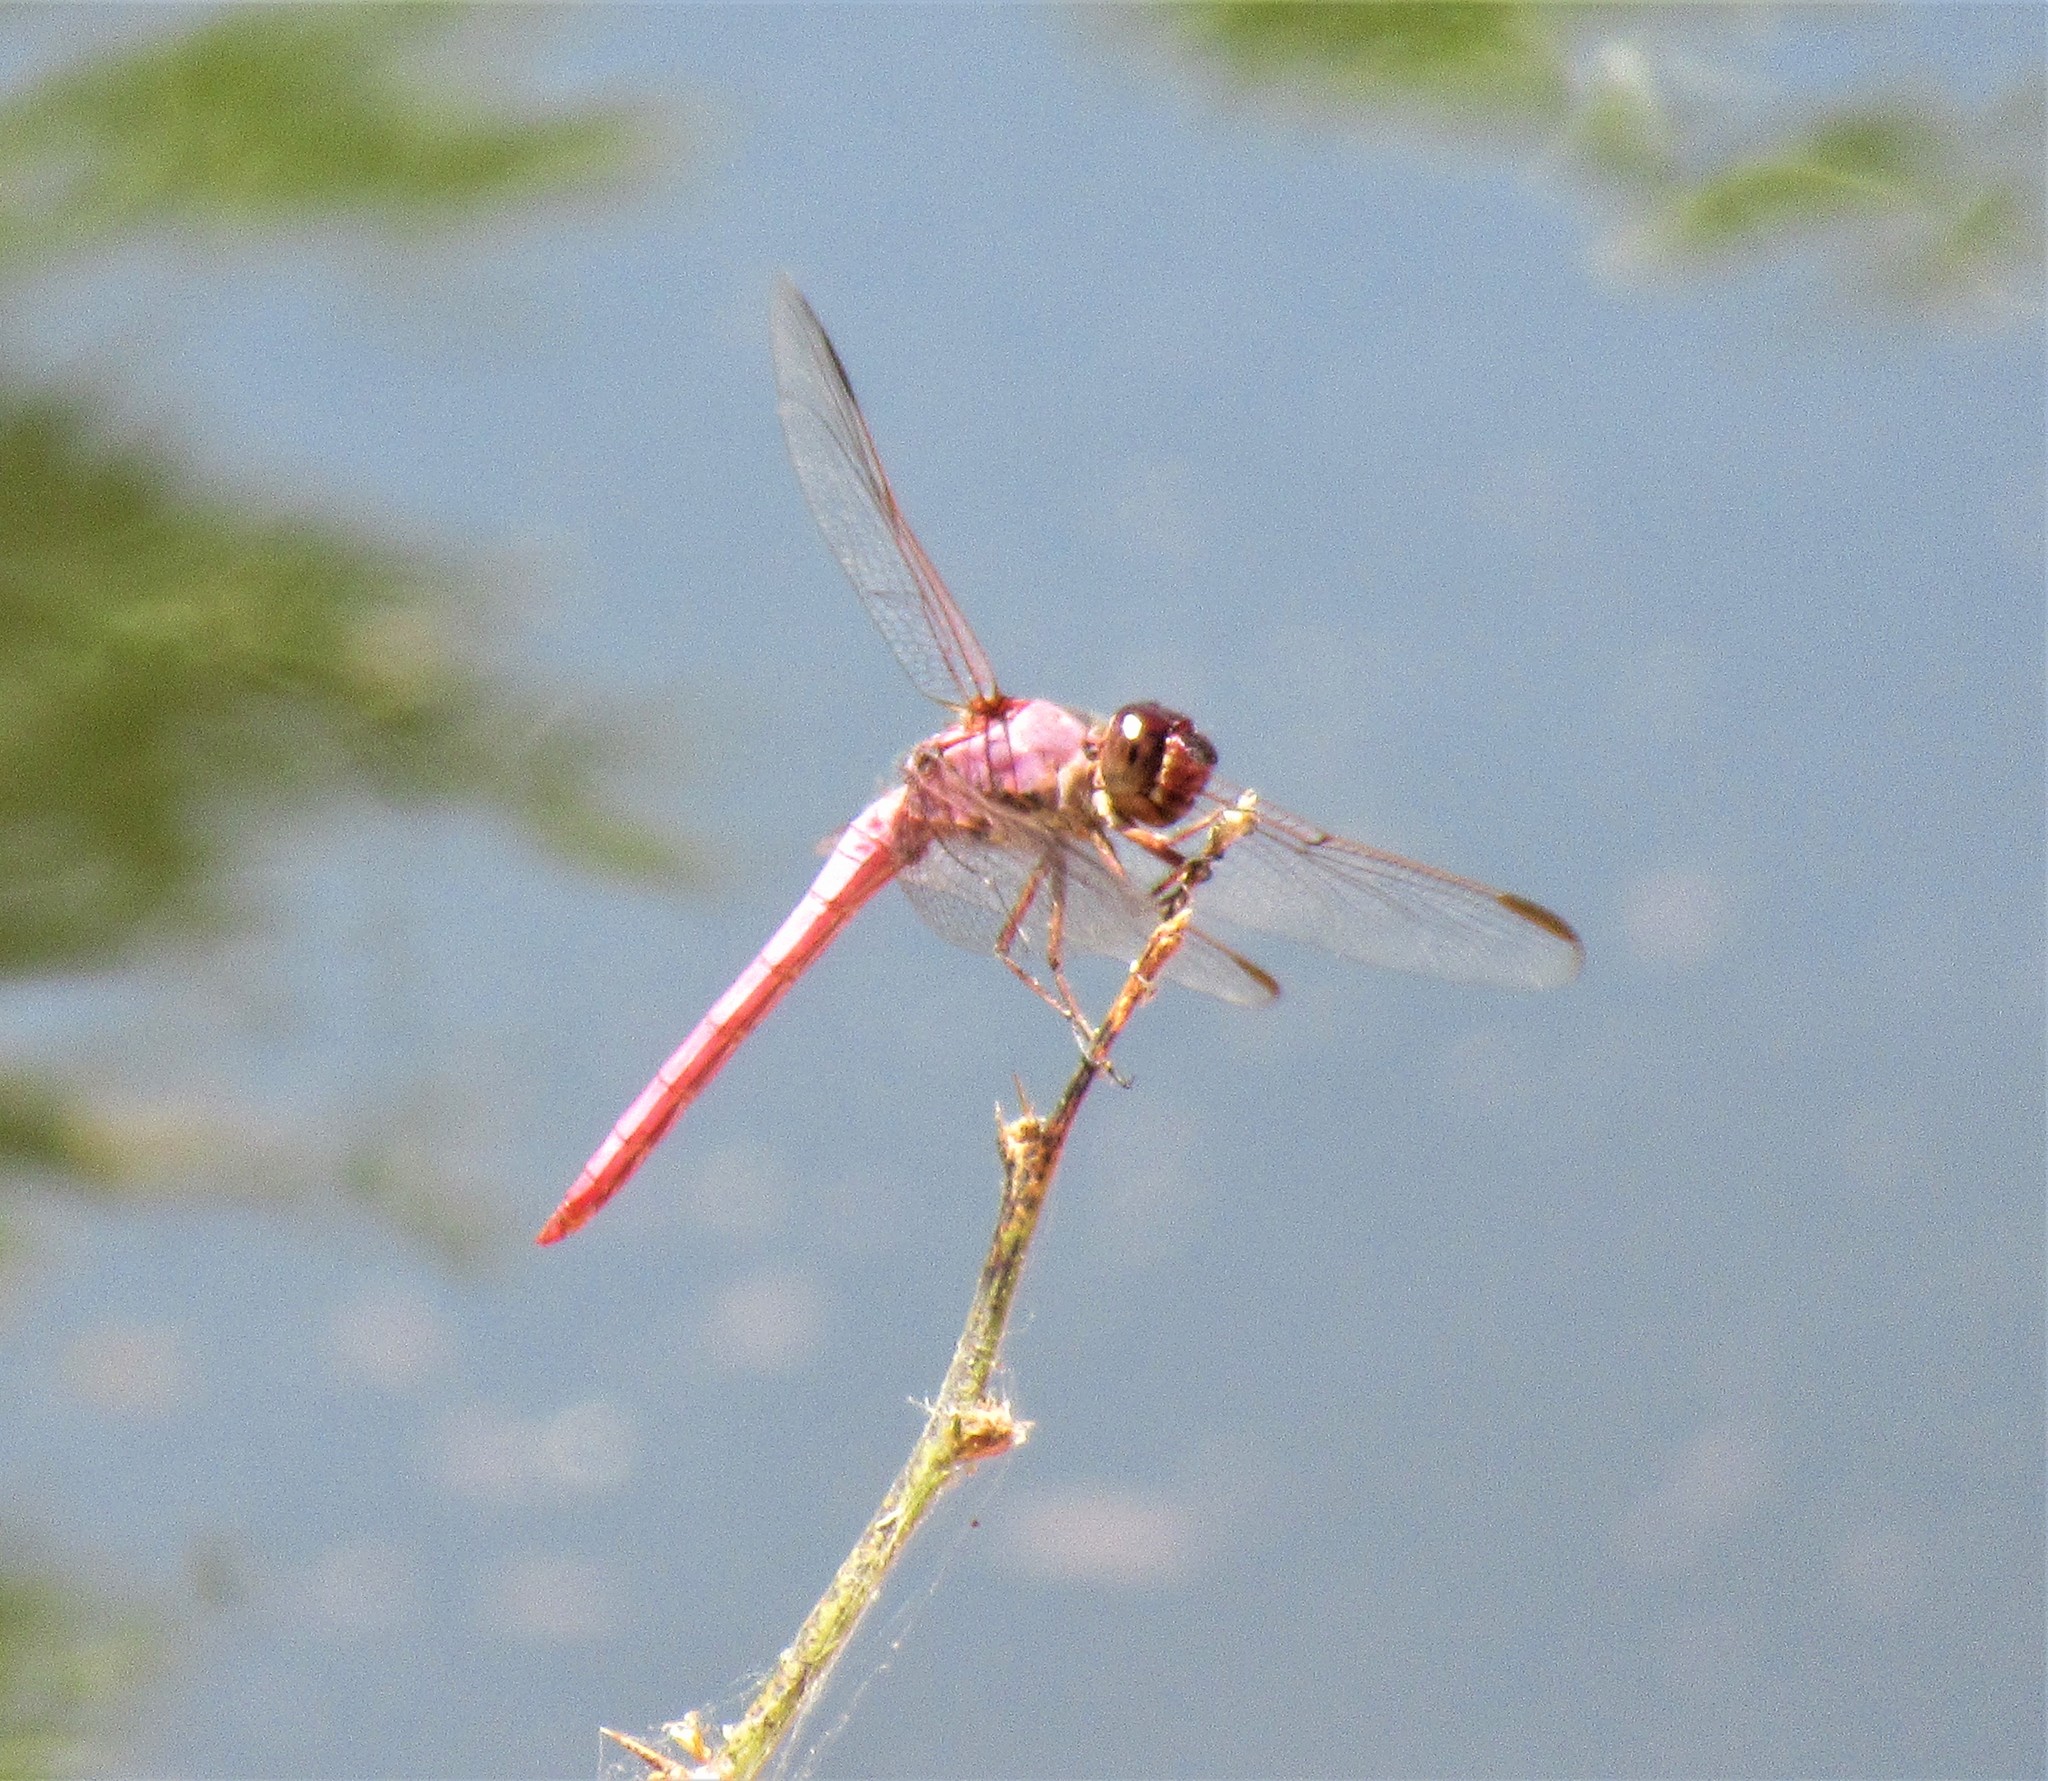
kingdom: Animalia
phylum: Arthropoda
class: Insecta
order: Odonata
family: Libellulidae
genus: Orthemis
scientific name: Orthemis ferruginea
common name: Roseate skimmer
